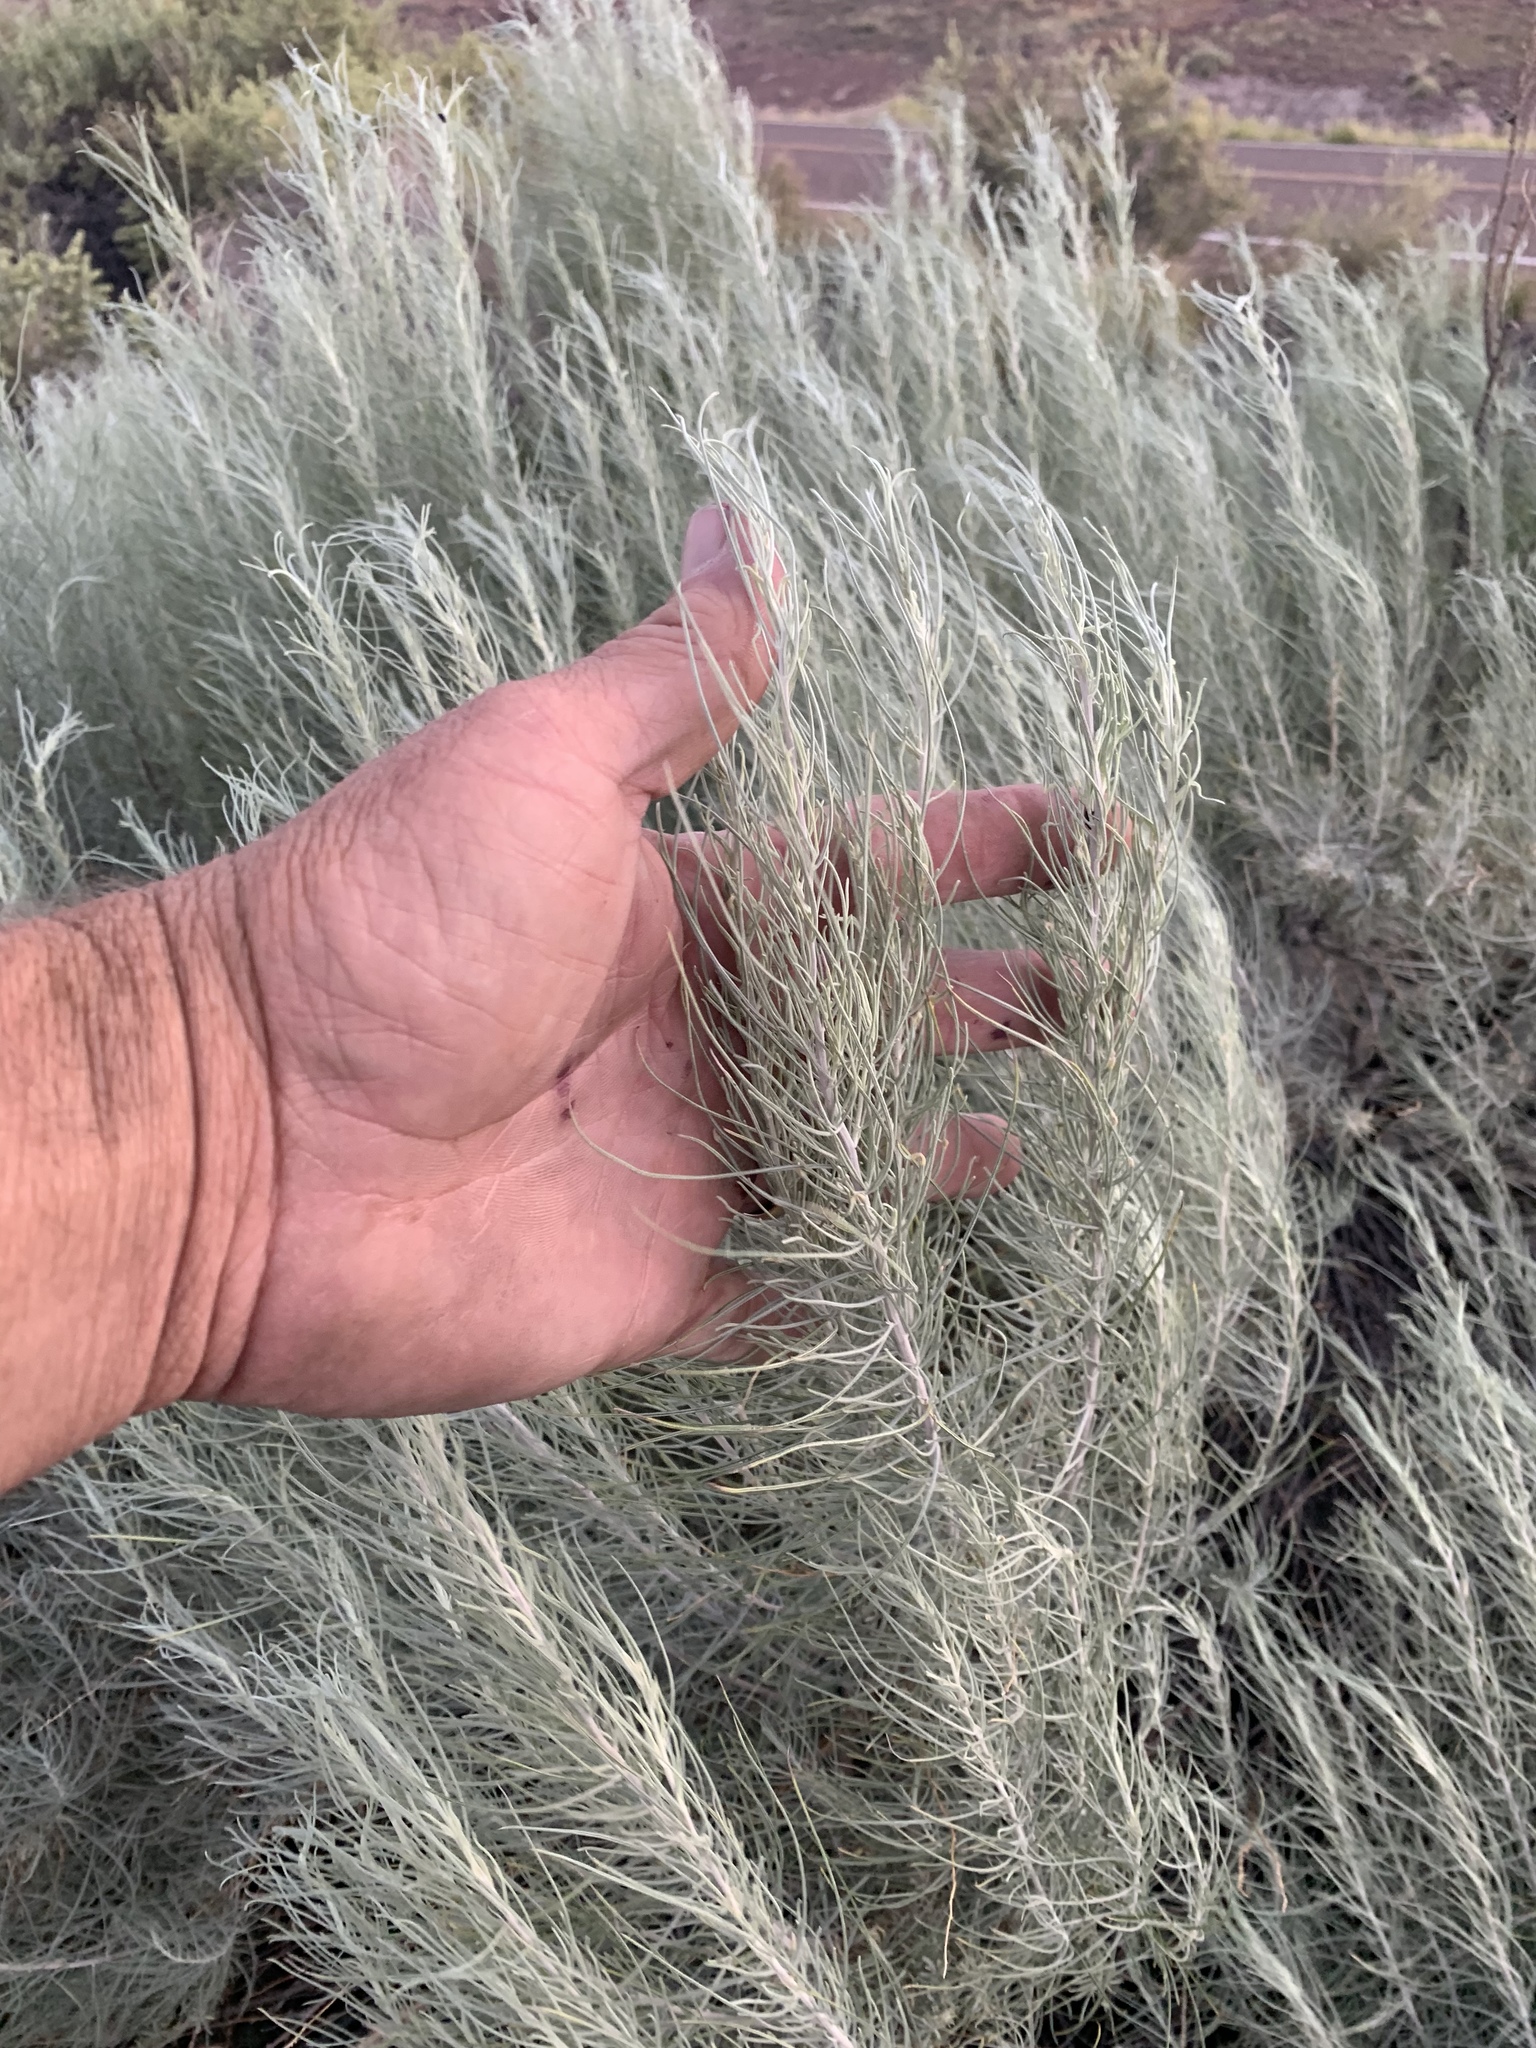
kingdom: Plantae
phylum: Tracheophyta
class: Magnoliopsida
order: Asterales
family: Asteraceae
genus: Artemisia
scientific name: Artemisia filifolia
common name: Sand-sage
